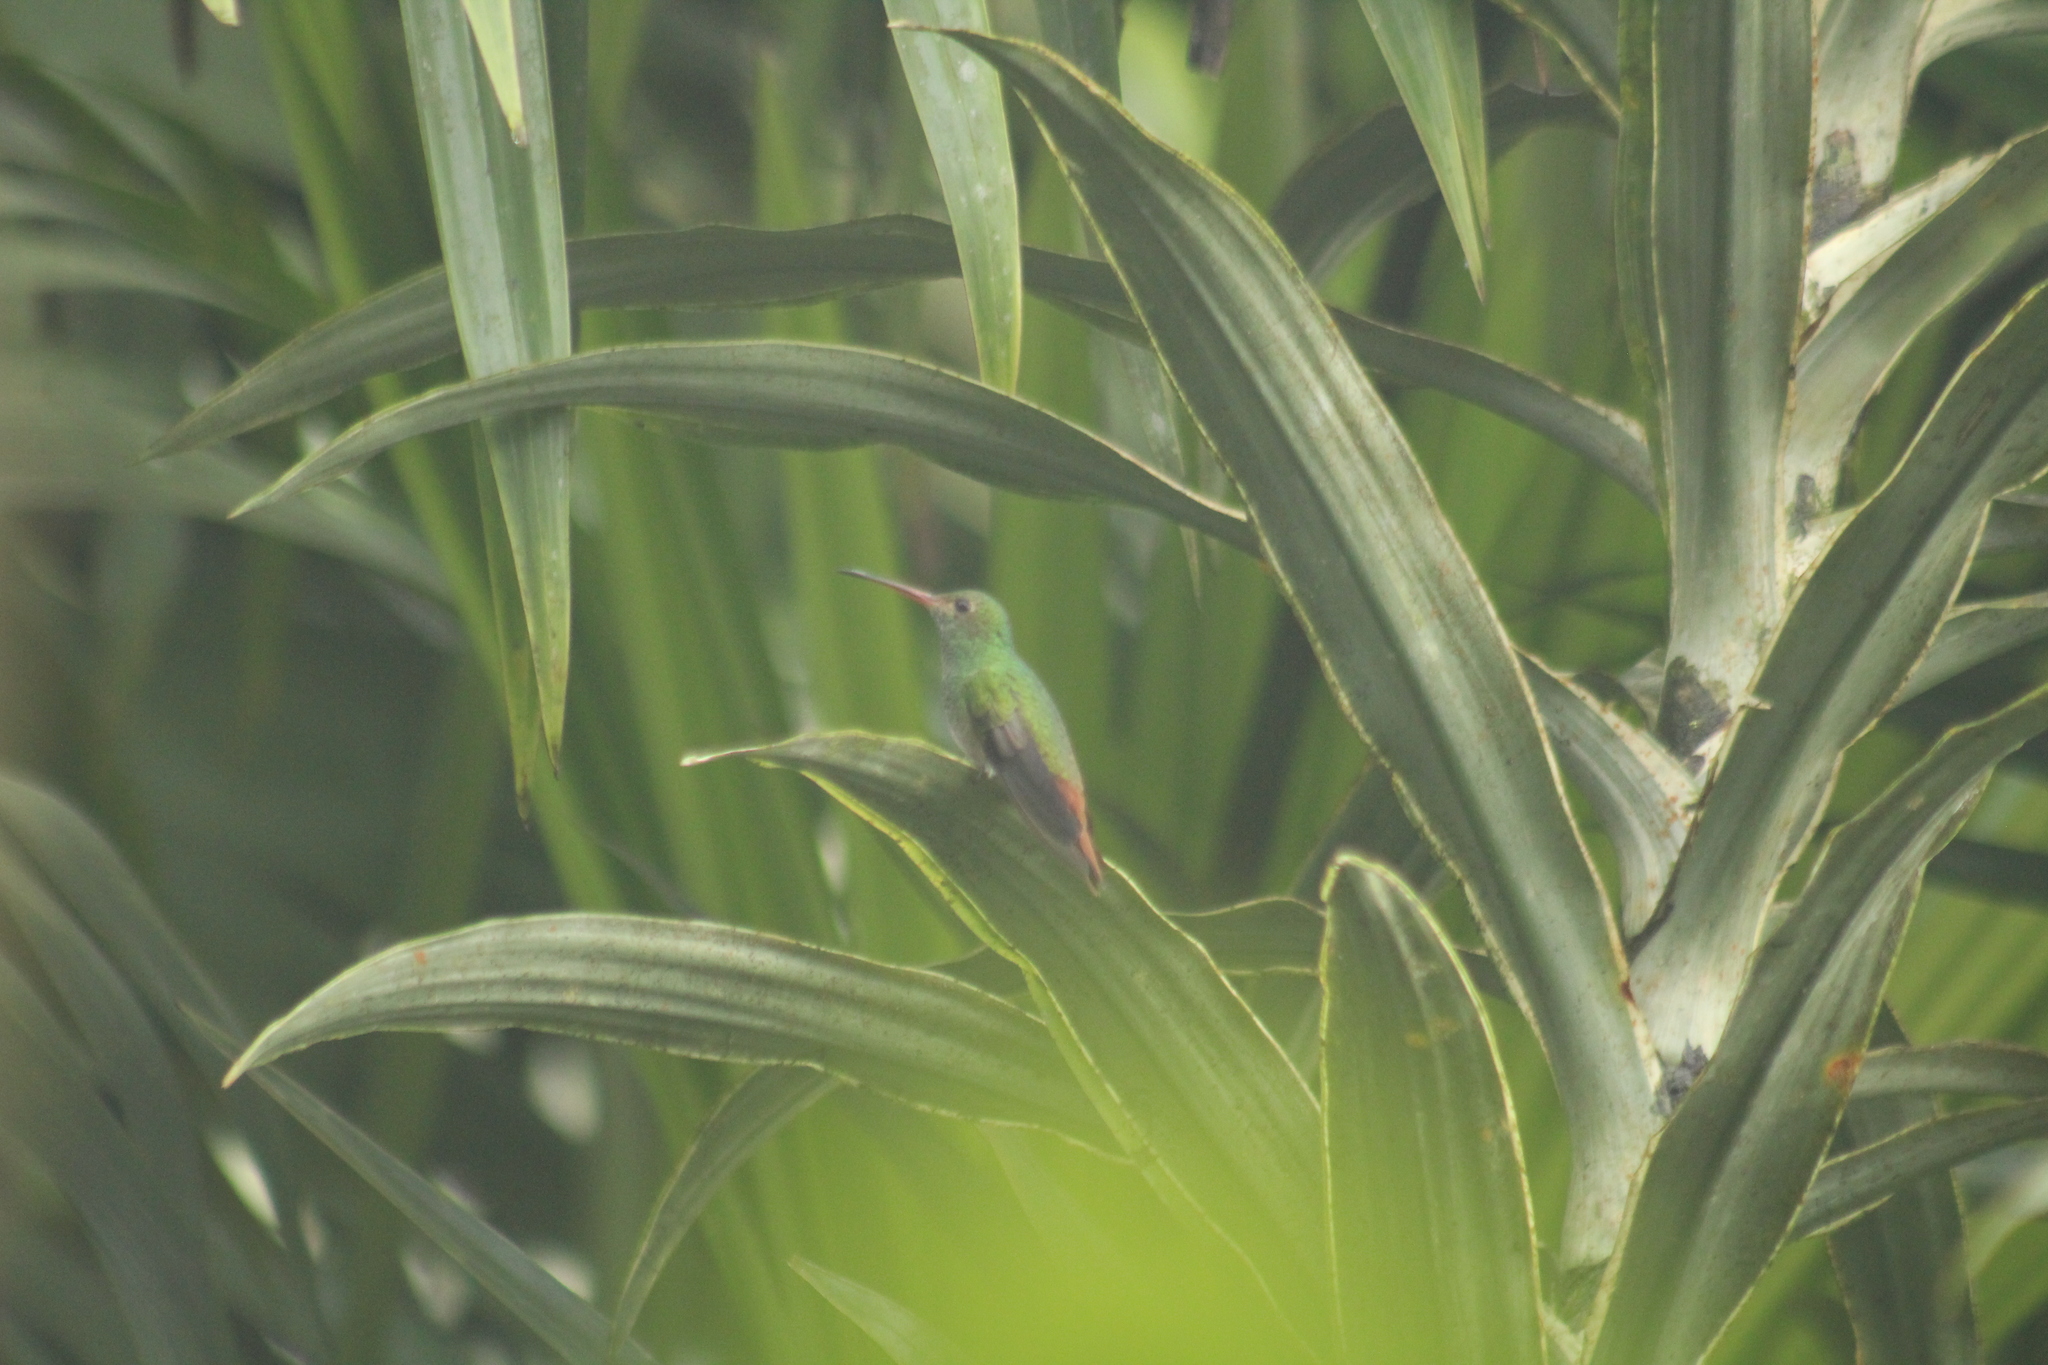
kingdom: Animalia
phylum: Chordata
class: Aves
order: Apodiformes
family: Trochilidae
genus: Amazilia
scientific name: Amazilia tzacatl
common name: Rufous-tailed hummingbird
